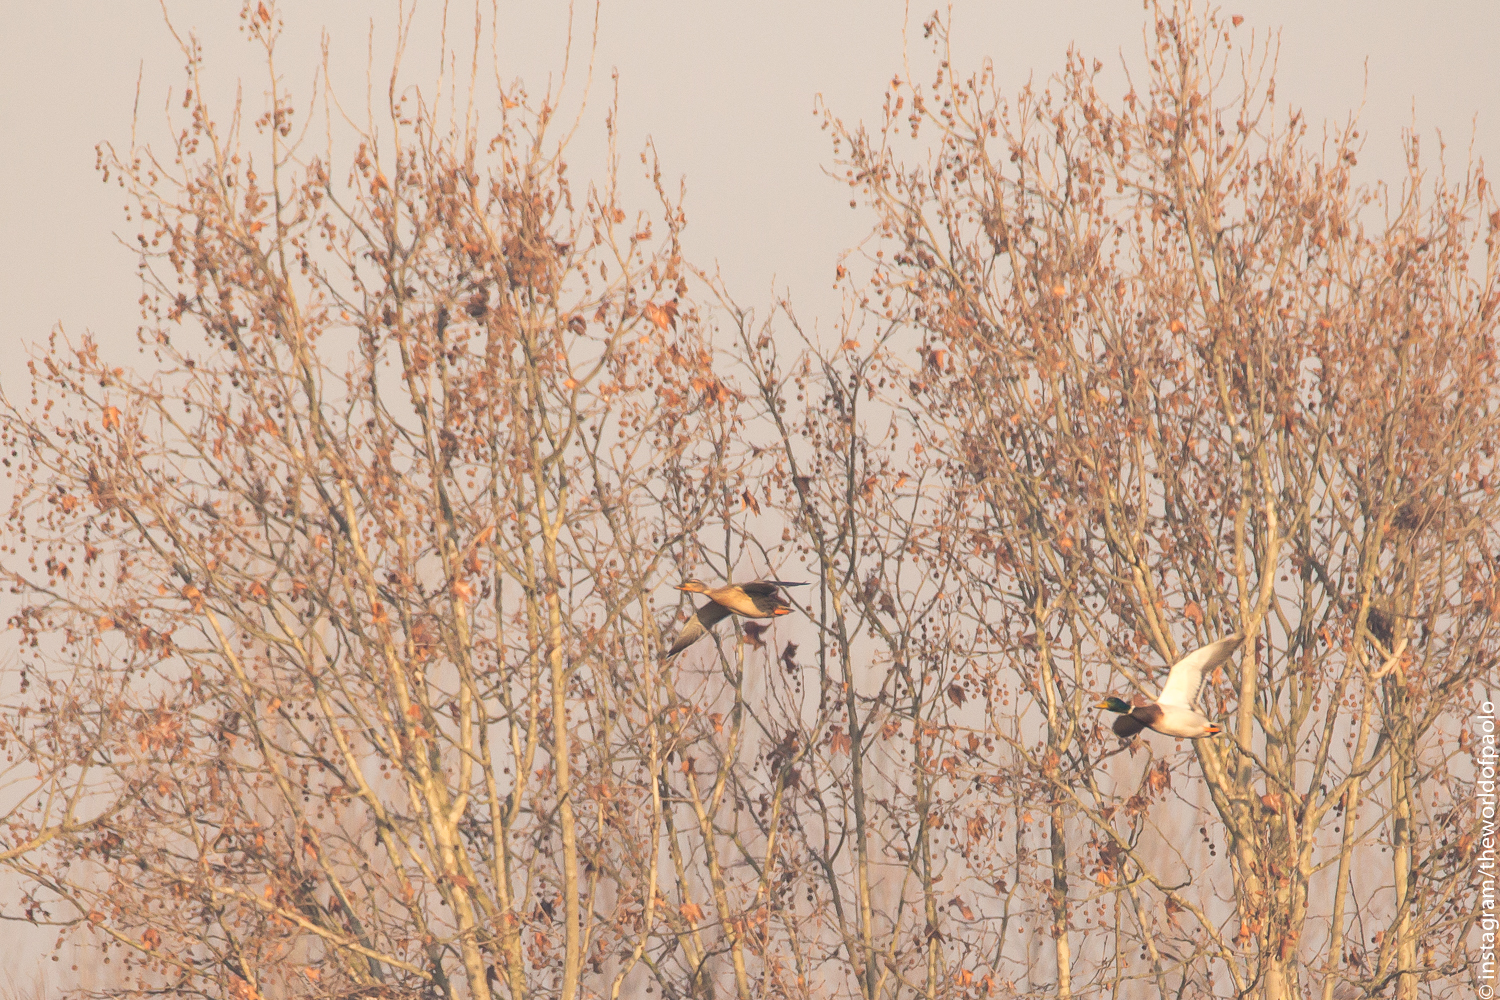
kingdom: Animalia
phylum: Chordata
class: Aves
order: Anseriformes
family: Anatidae
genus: Anas
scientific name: Anas platyrhynchos
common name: Mallard
